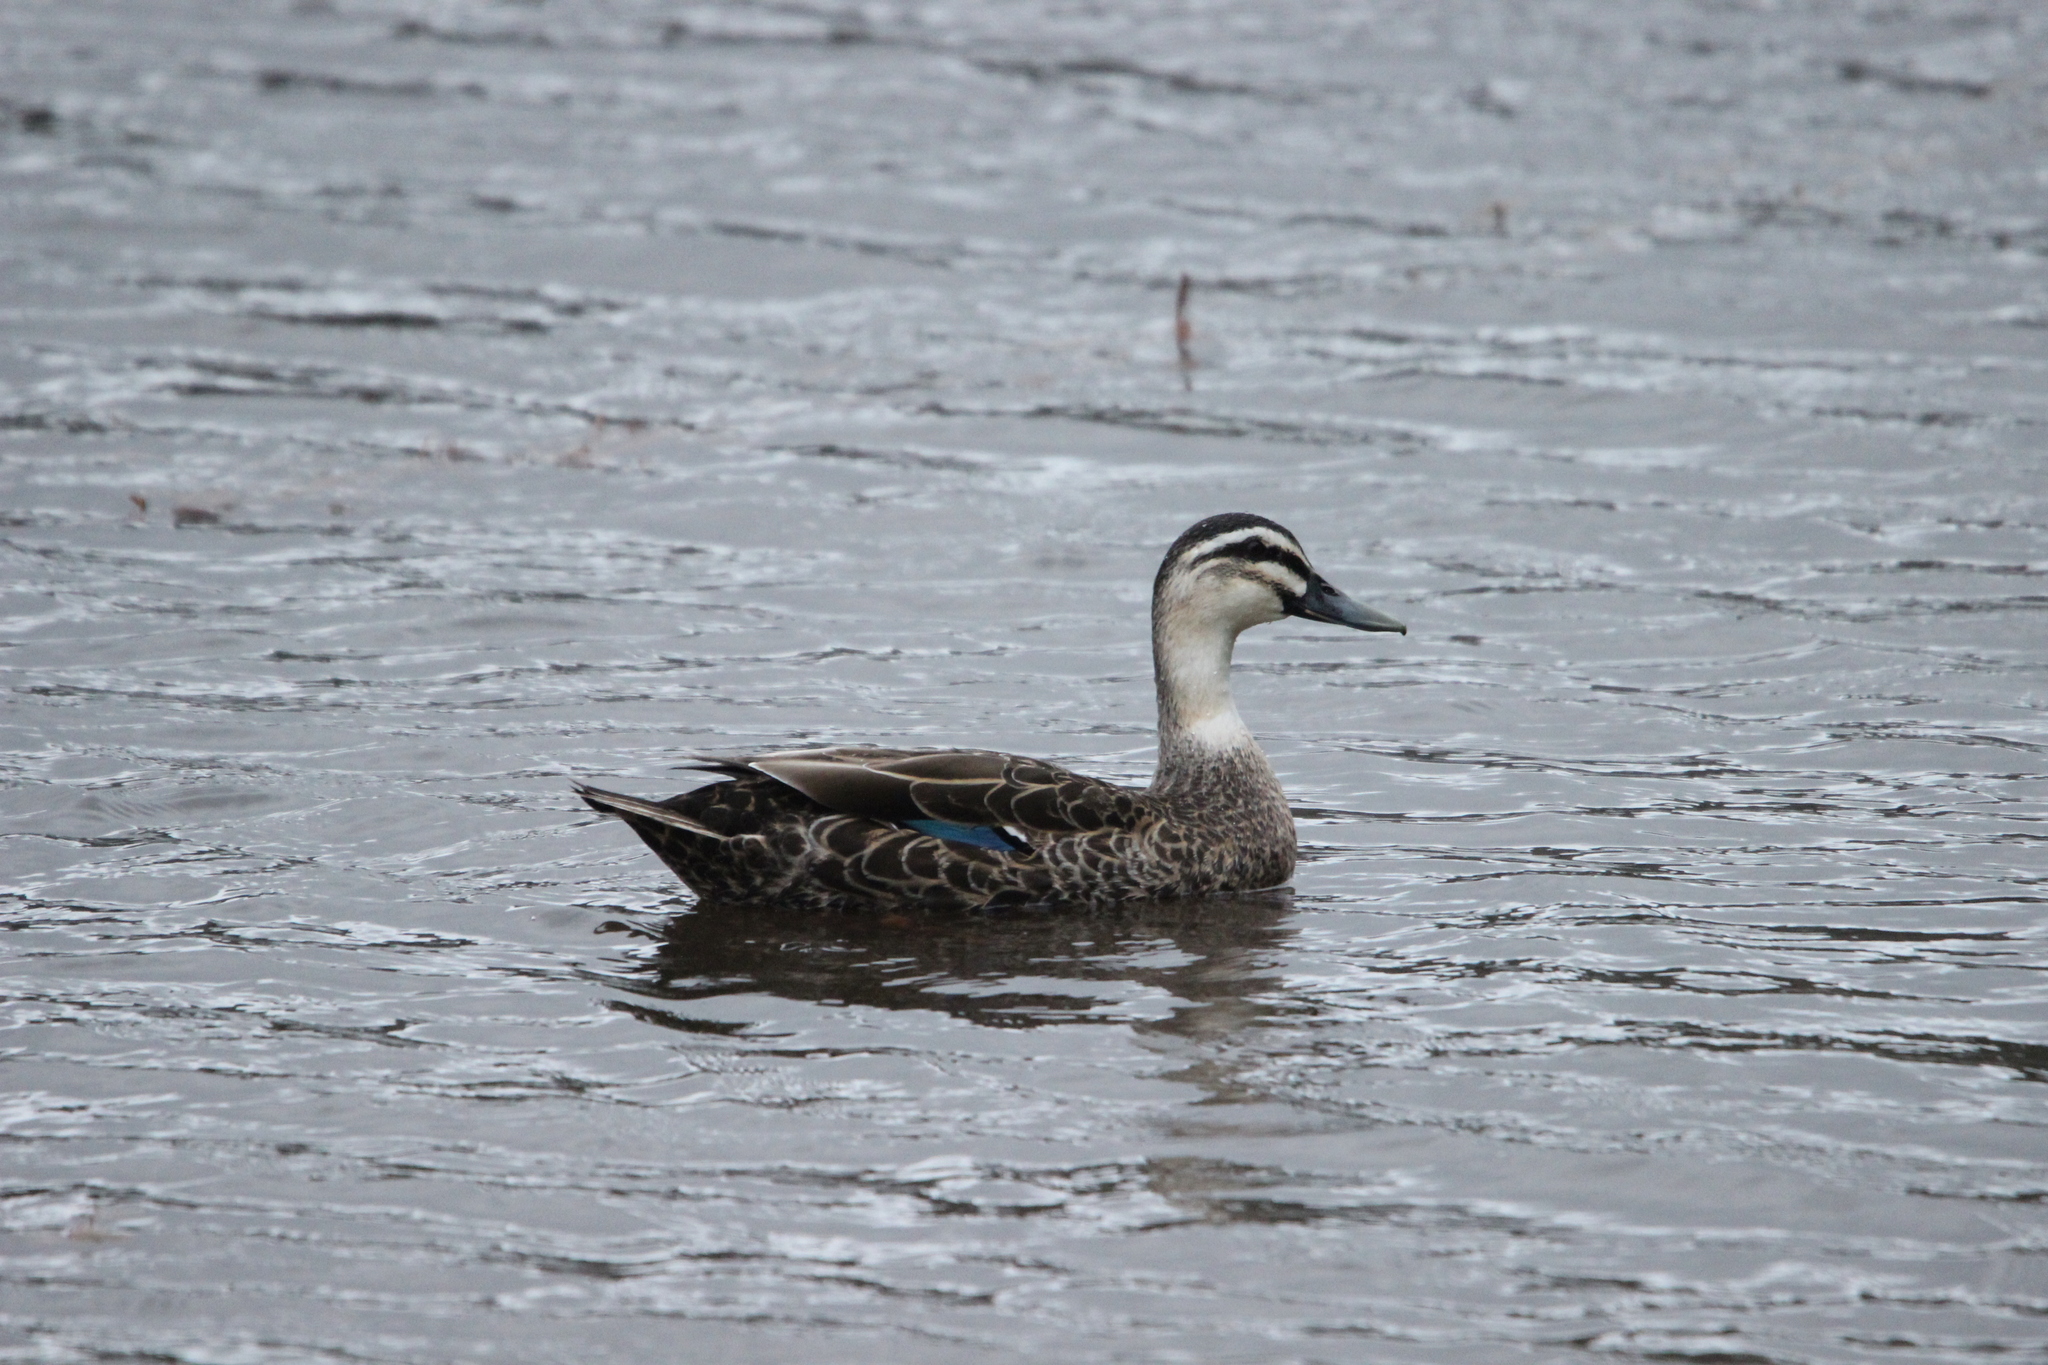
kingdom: Animalia
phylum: Chordata
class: Aves
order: Anseriformes
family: Anatidae
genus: Anas
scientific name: Anas
